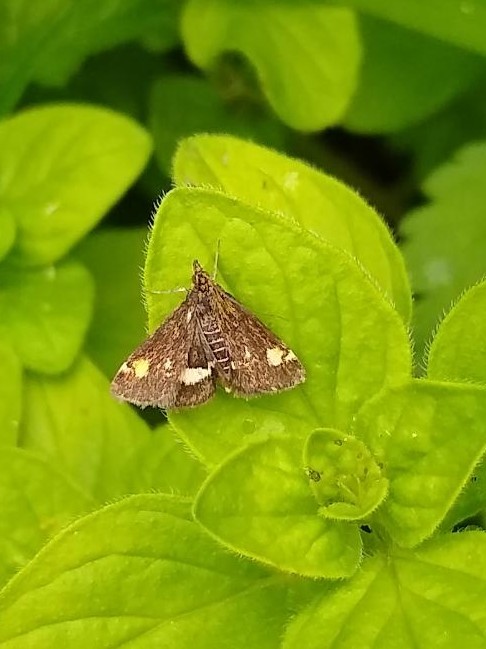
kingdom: Animalia
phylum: Arthropoda
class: Insecta
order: Lepidoptera
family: Crambidae
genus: Pyrausta
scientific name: Pyrausta aurata
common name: Small purple & gold
